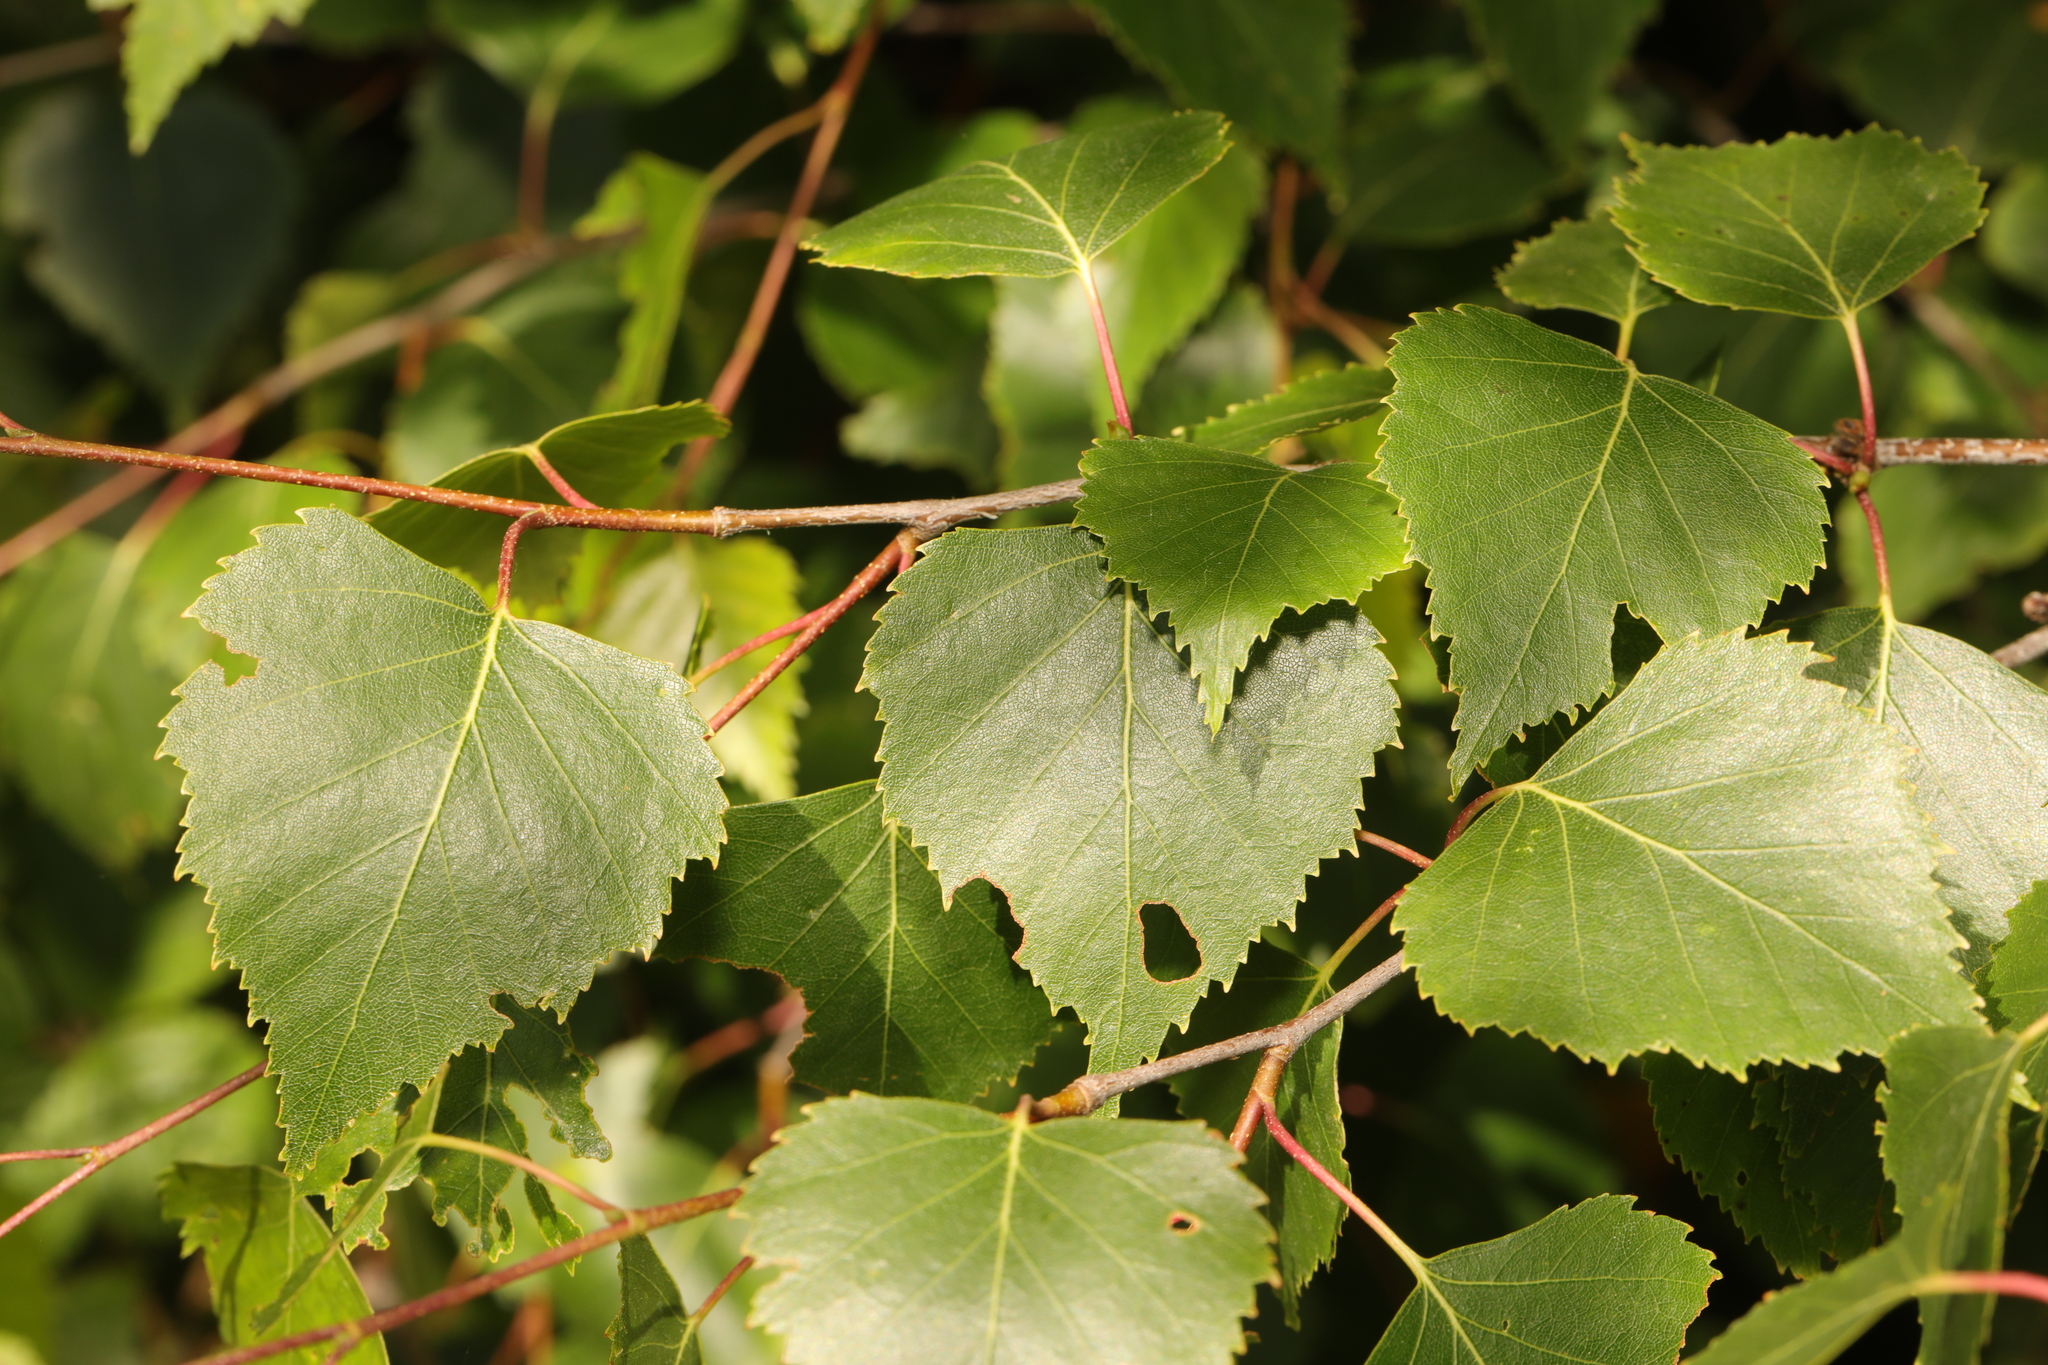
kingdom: Plantae
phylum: Tracheophyta
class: Magnoliopsida
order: Fagales
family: Betulaceae
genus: Betula
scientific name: Betula pendula
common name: Silver birch
